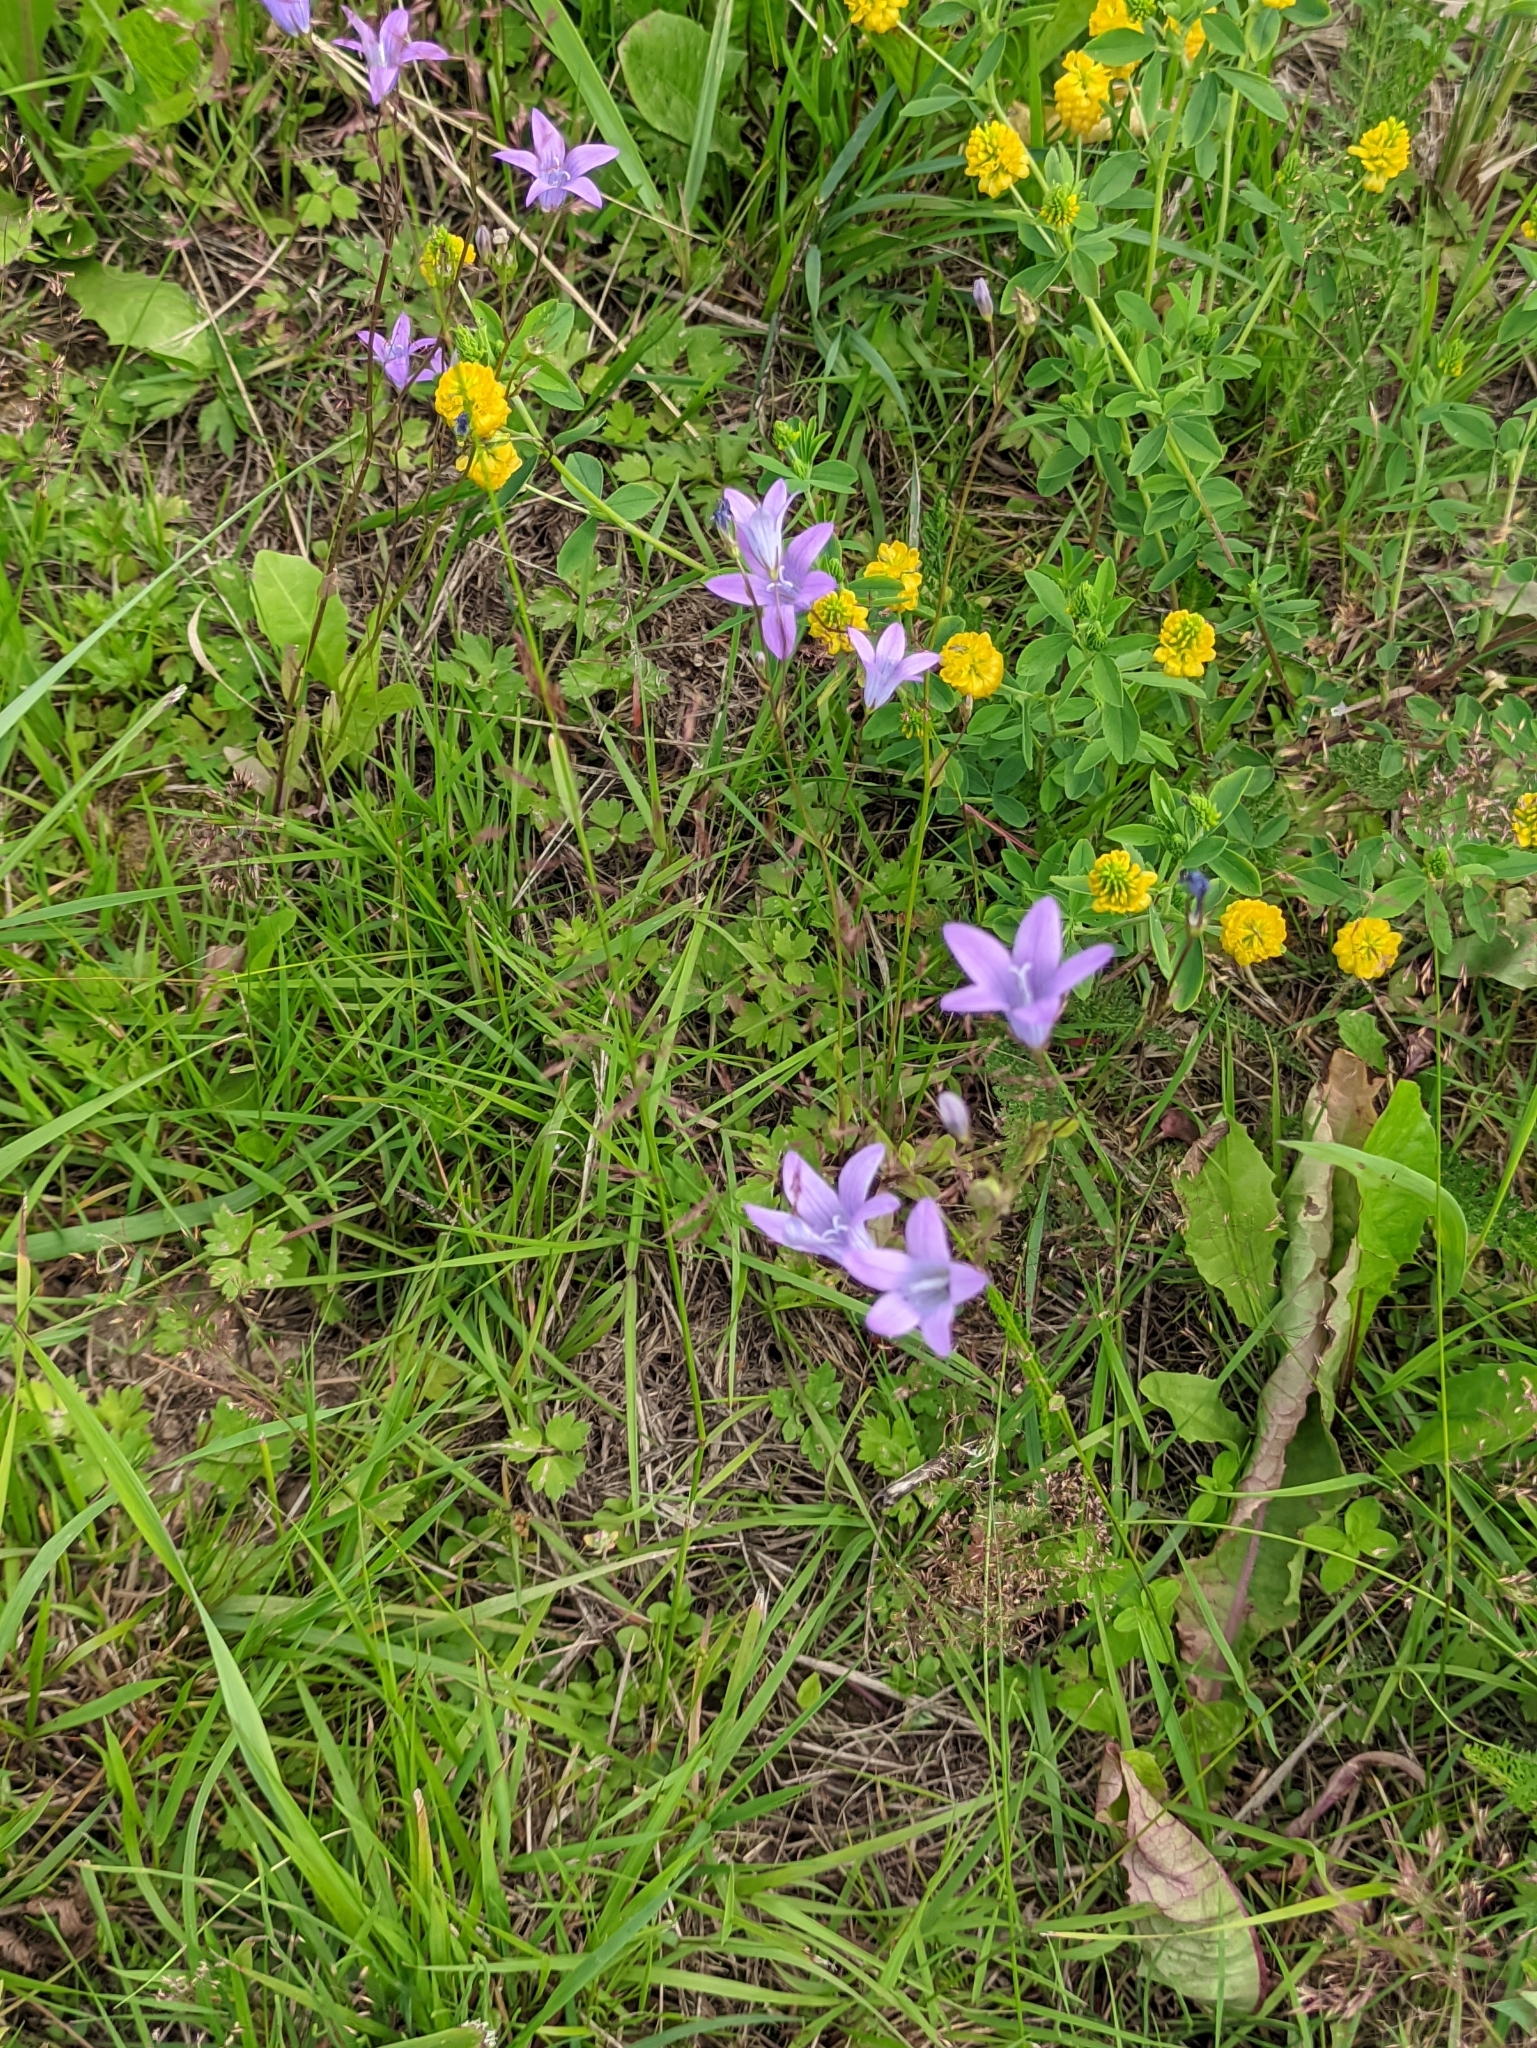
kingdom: Plantae
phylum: Tracheophyta
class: Magnoliopsida
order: Asterales
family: Campanulaceae
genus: Campanula
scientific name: Campanula patula
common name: Spreading bellflower
